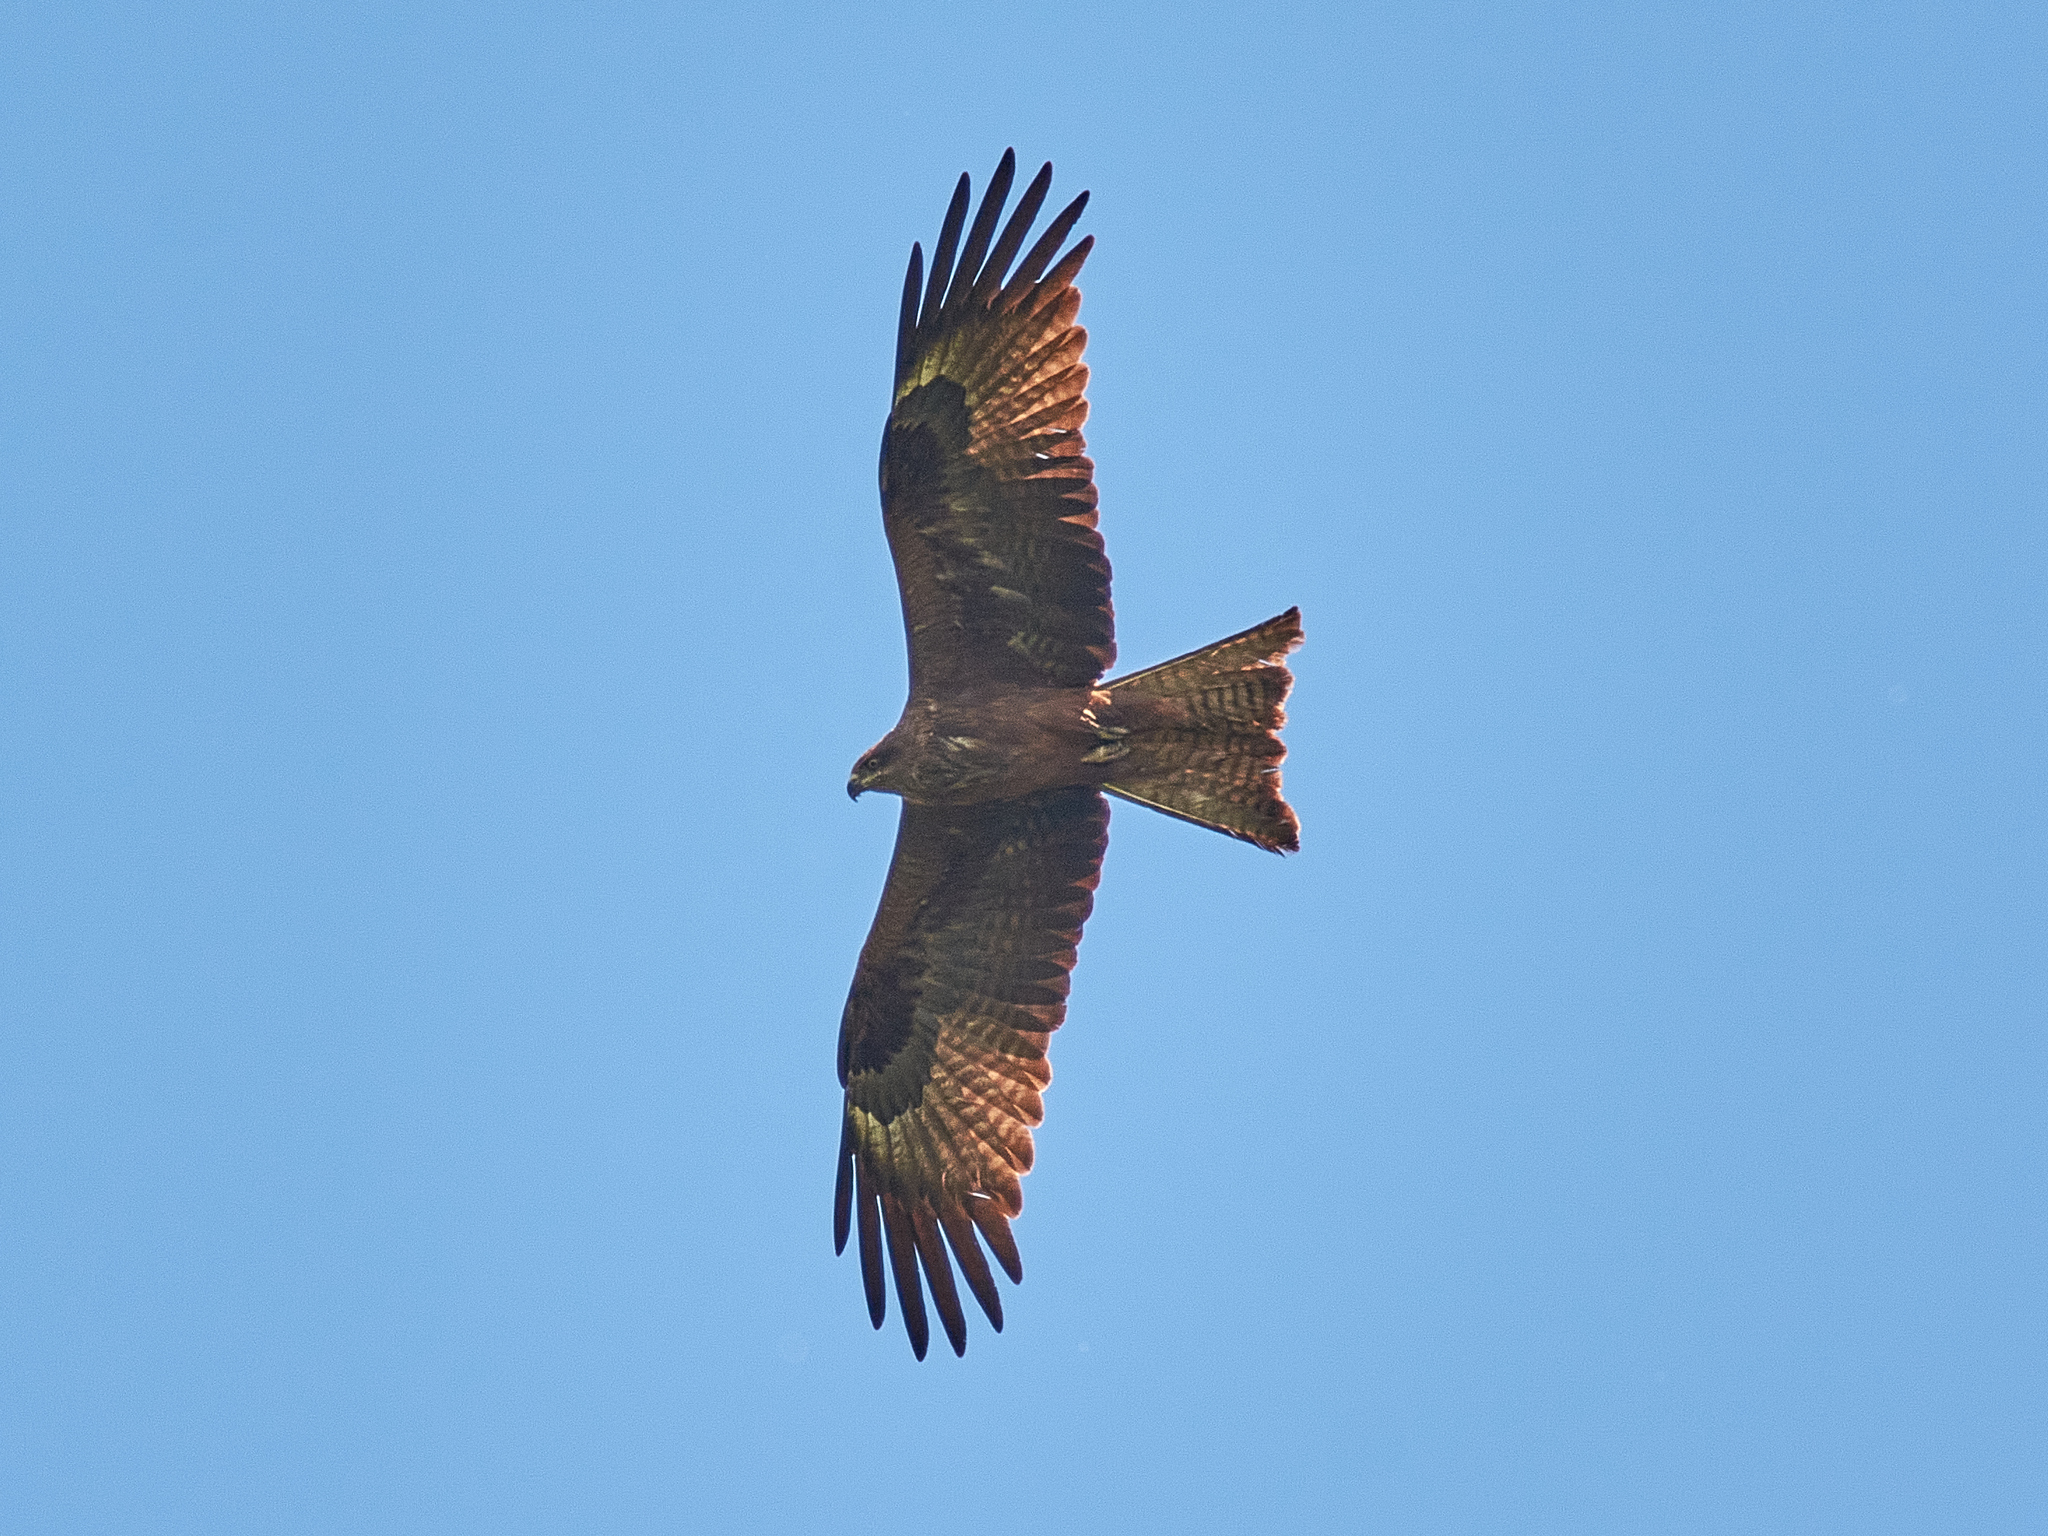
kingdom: Animalia
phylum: Chordata
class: Aves
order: Accipitriformes
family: Accipitridae
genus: Milvus
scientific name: Milvus migrans
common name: Black kite
